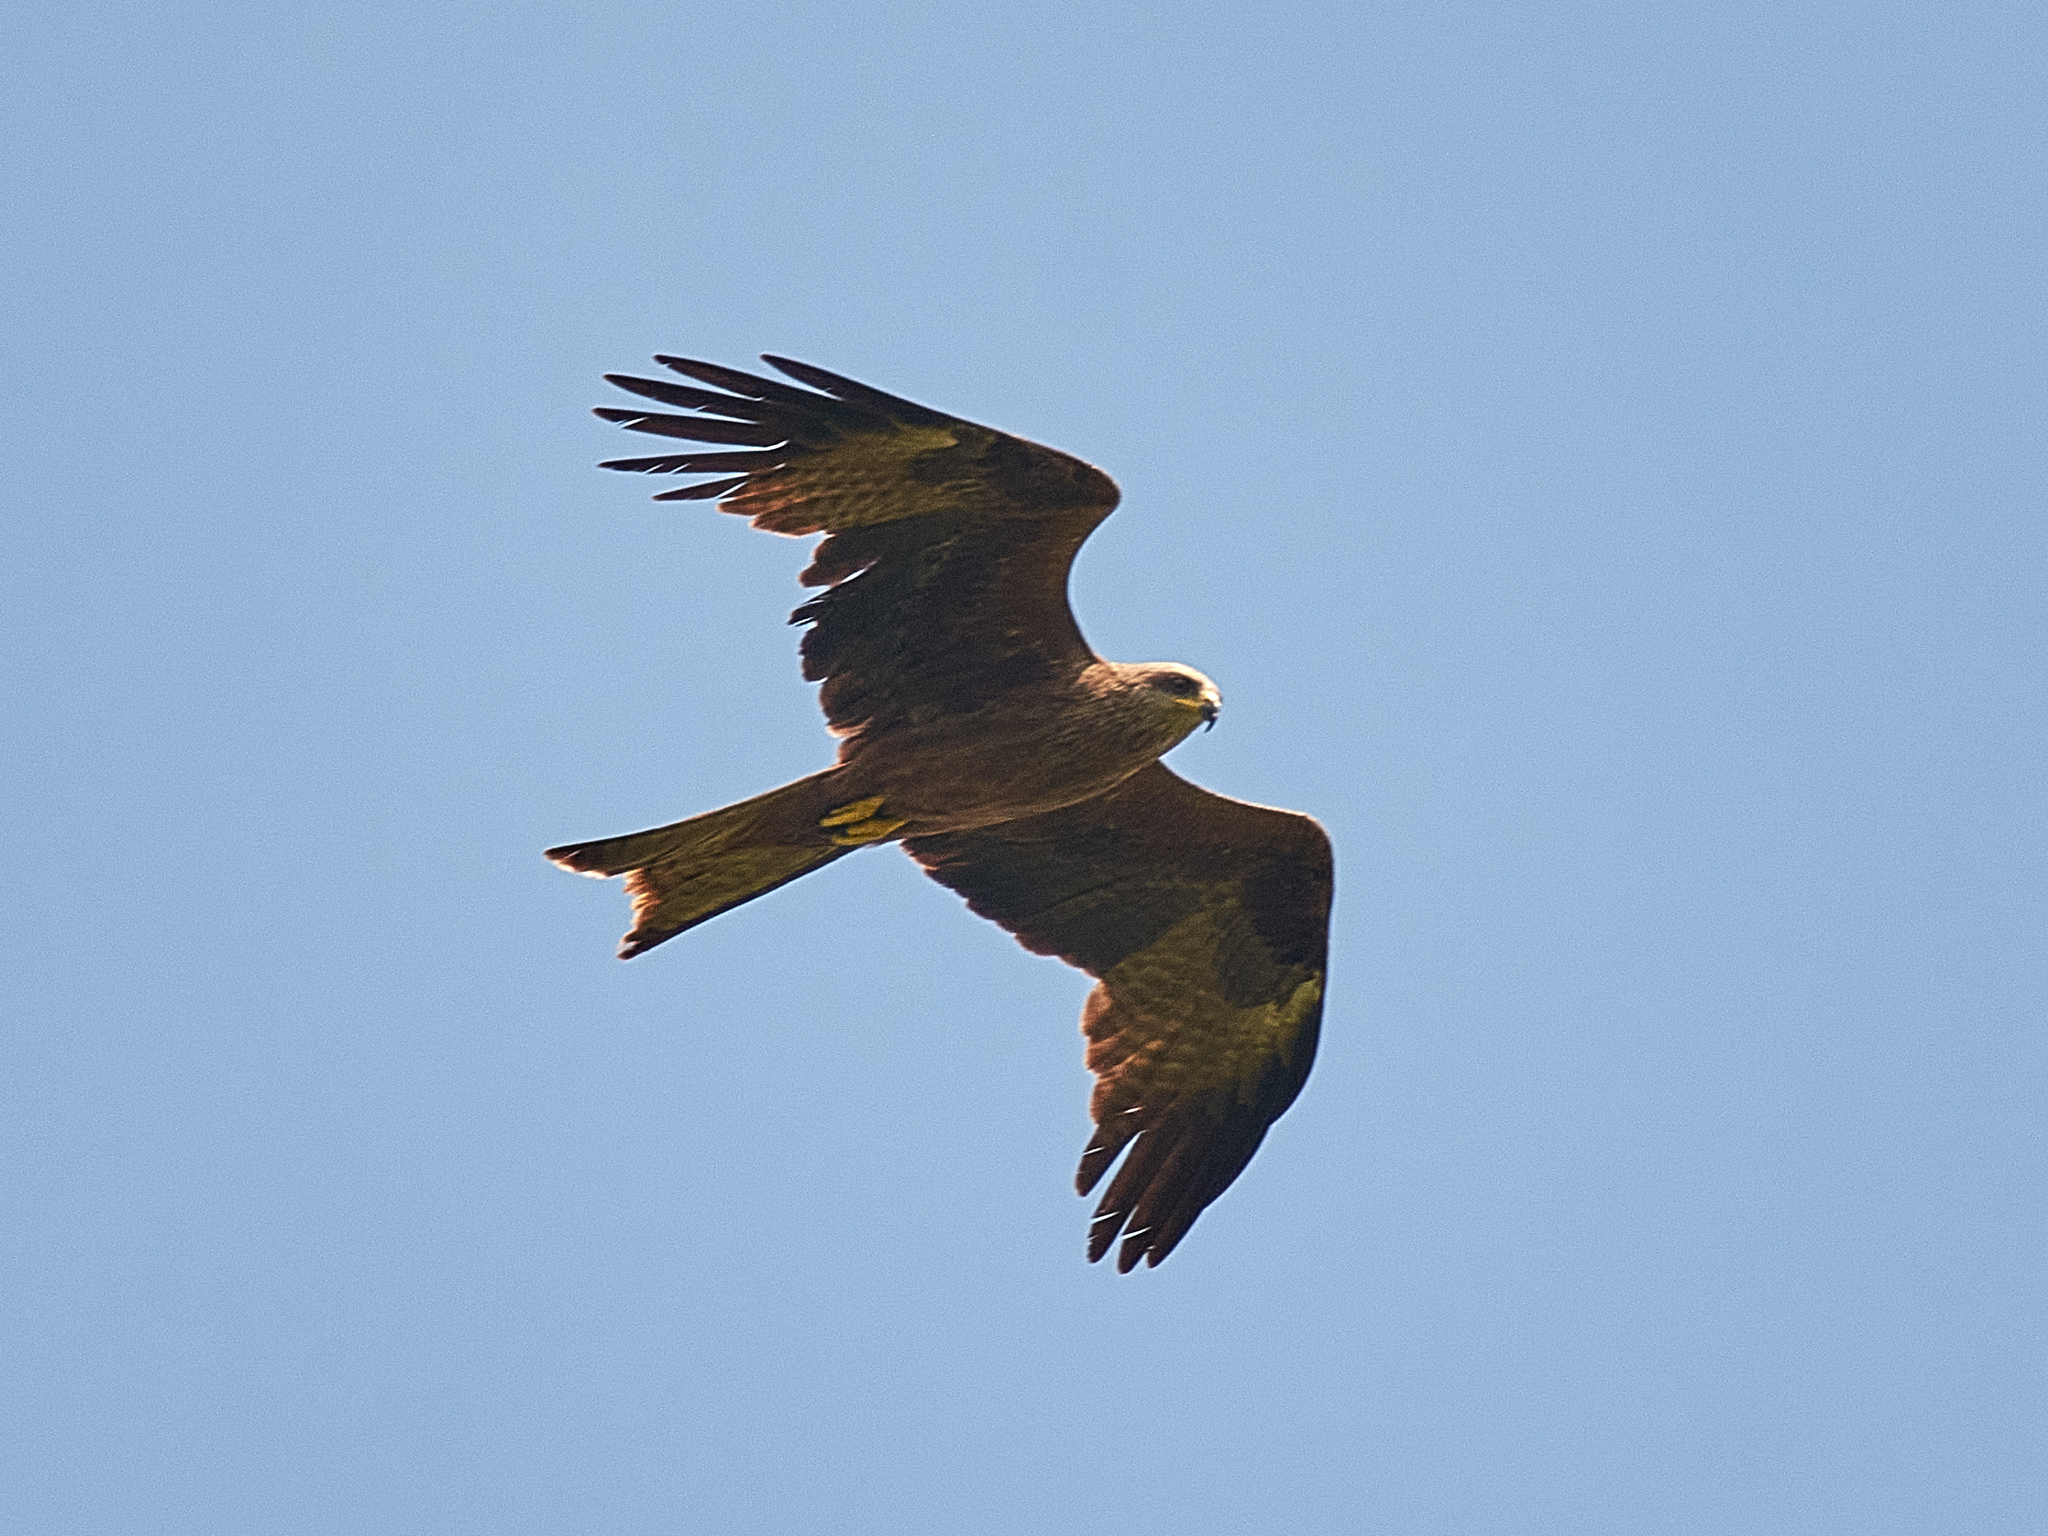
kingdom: Animalia
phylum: Chordata
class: Aves
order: Accipitriformes
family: Accipitridae
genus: Milvus
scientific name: Milvus migrans
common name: Black kite
